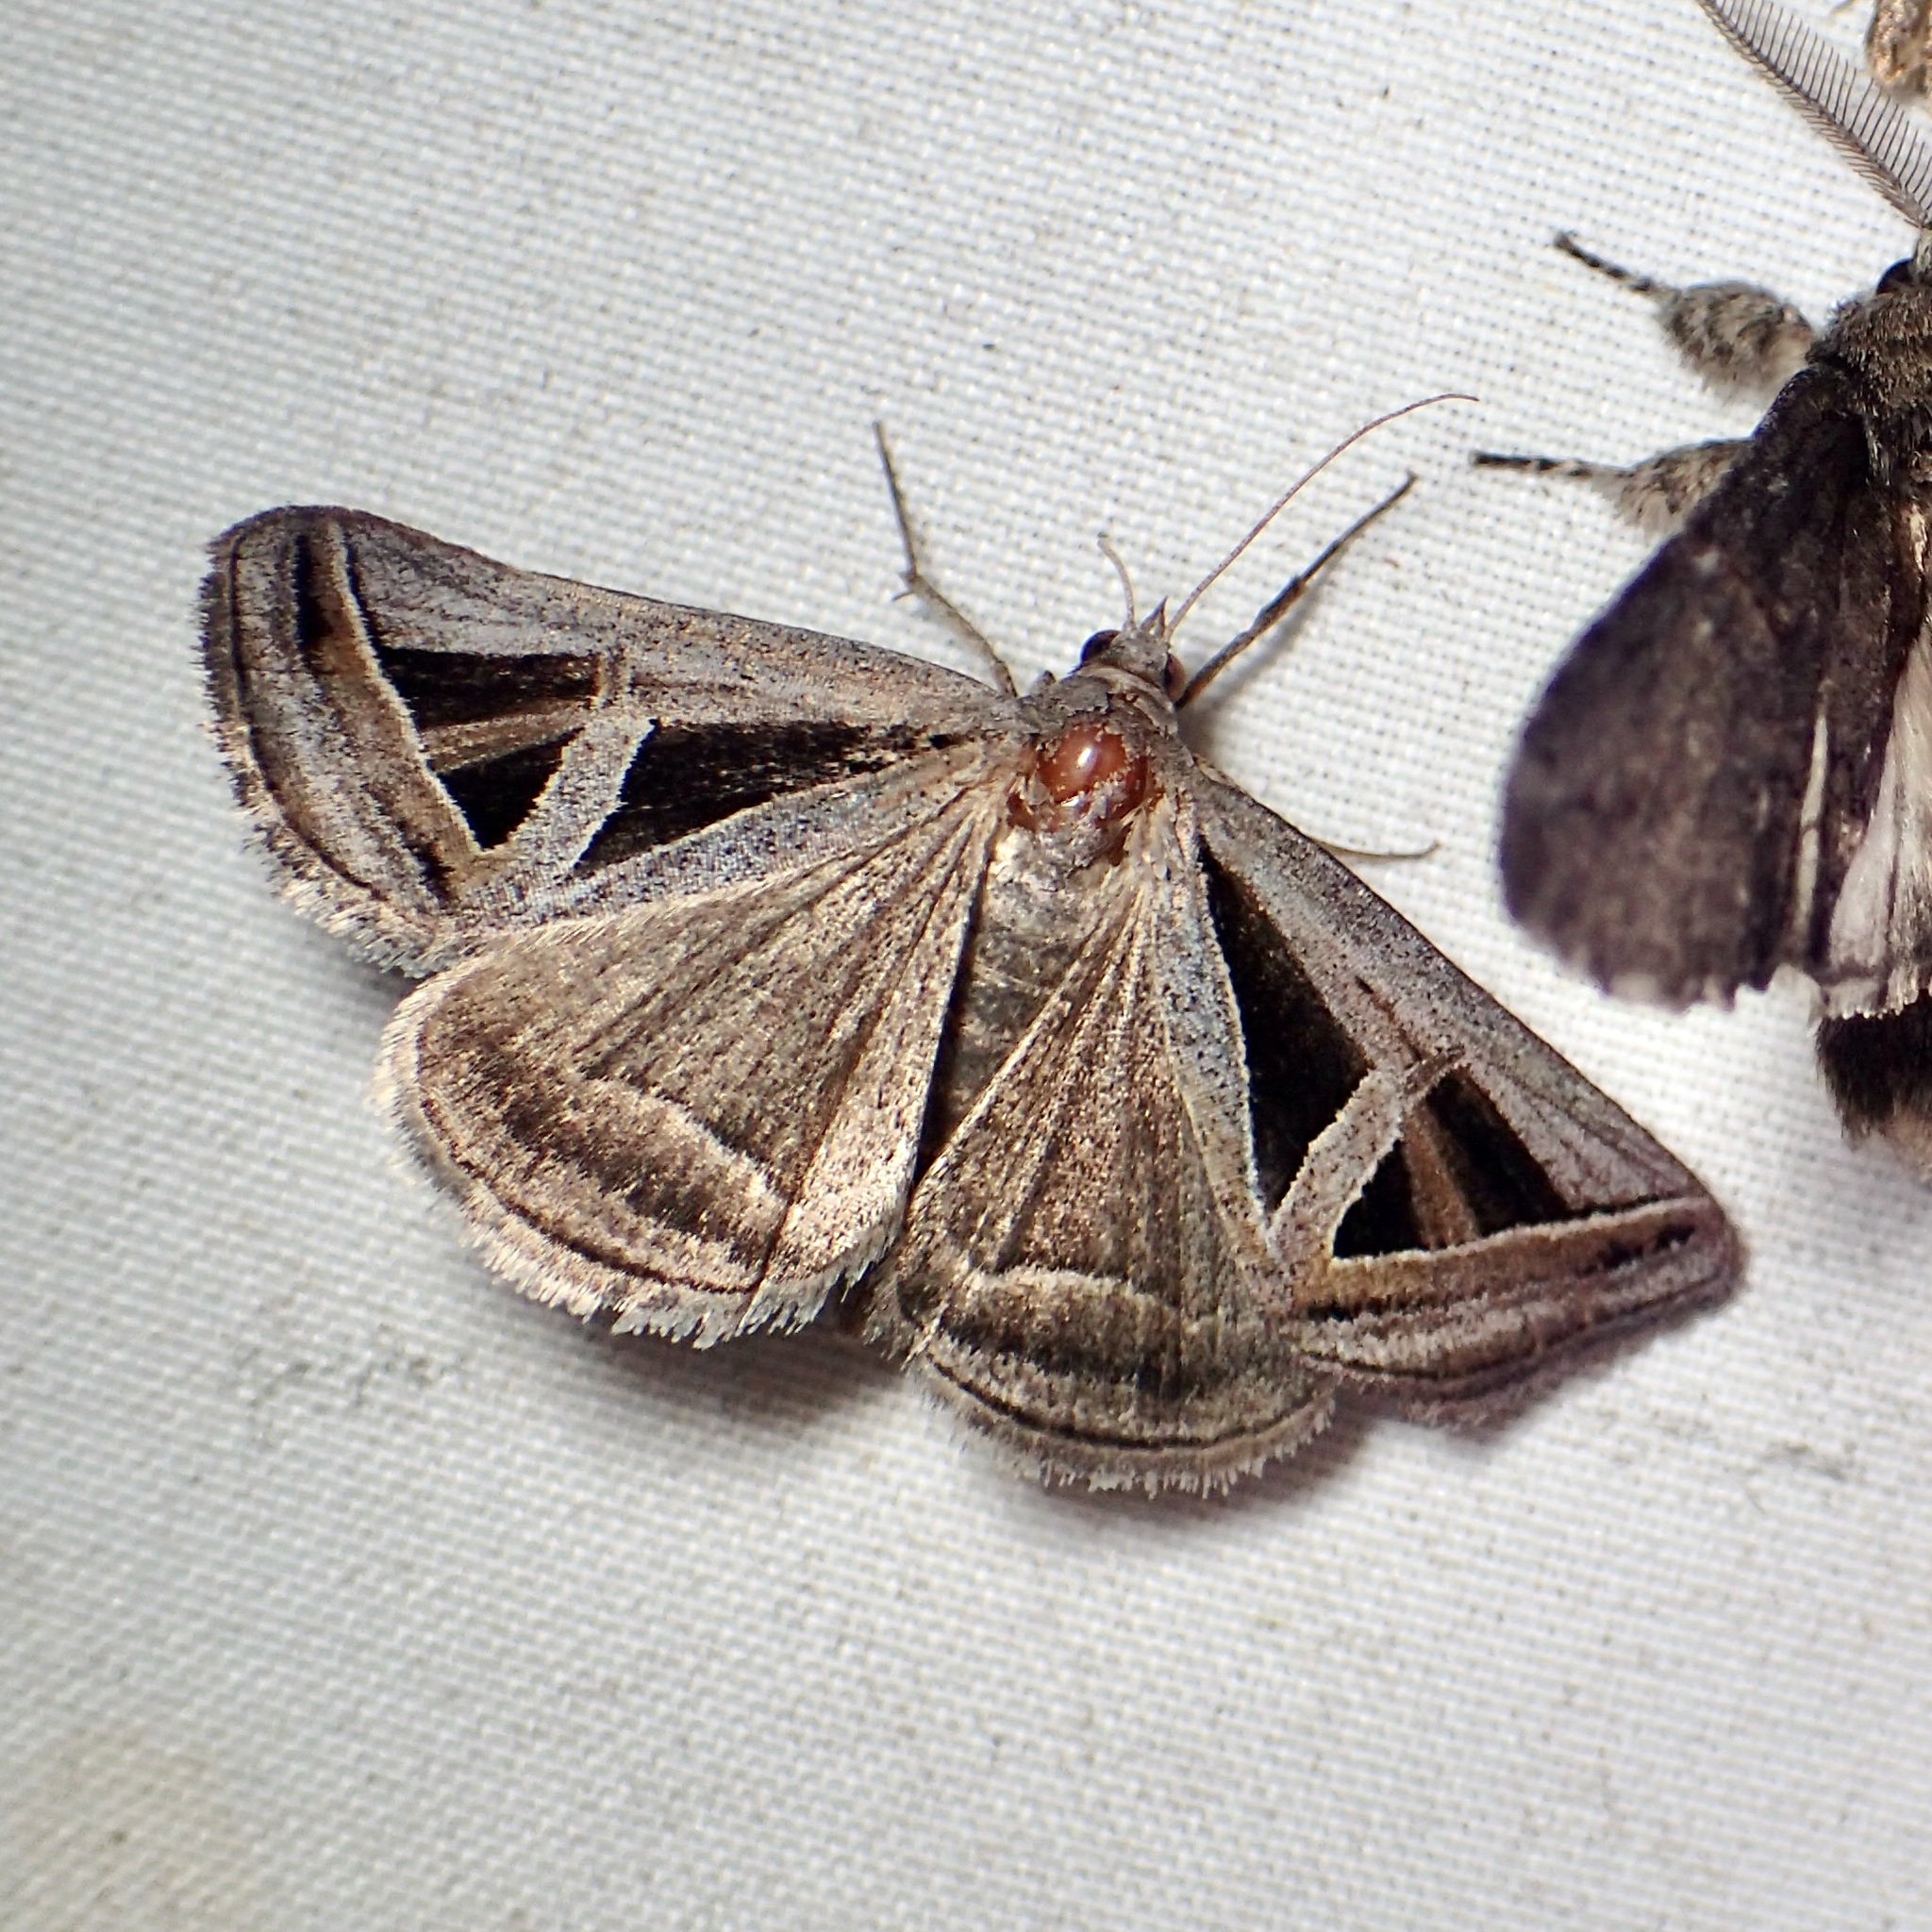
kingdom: Animalia
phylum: Arthropoda
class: Insecta
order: Lepidoptera
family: Erebidae
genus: Callistege
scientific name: Callistege triangula
